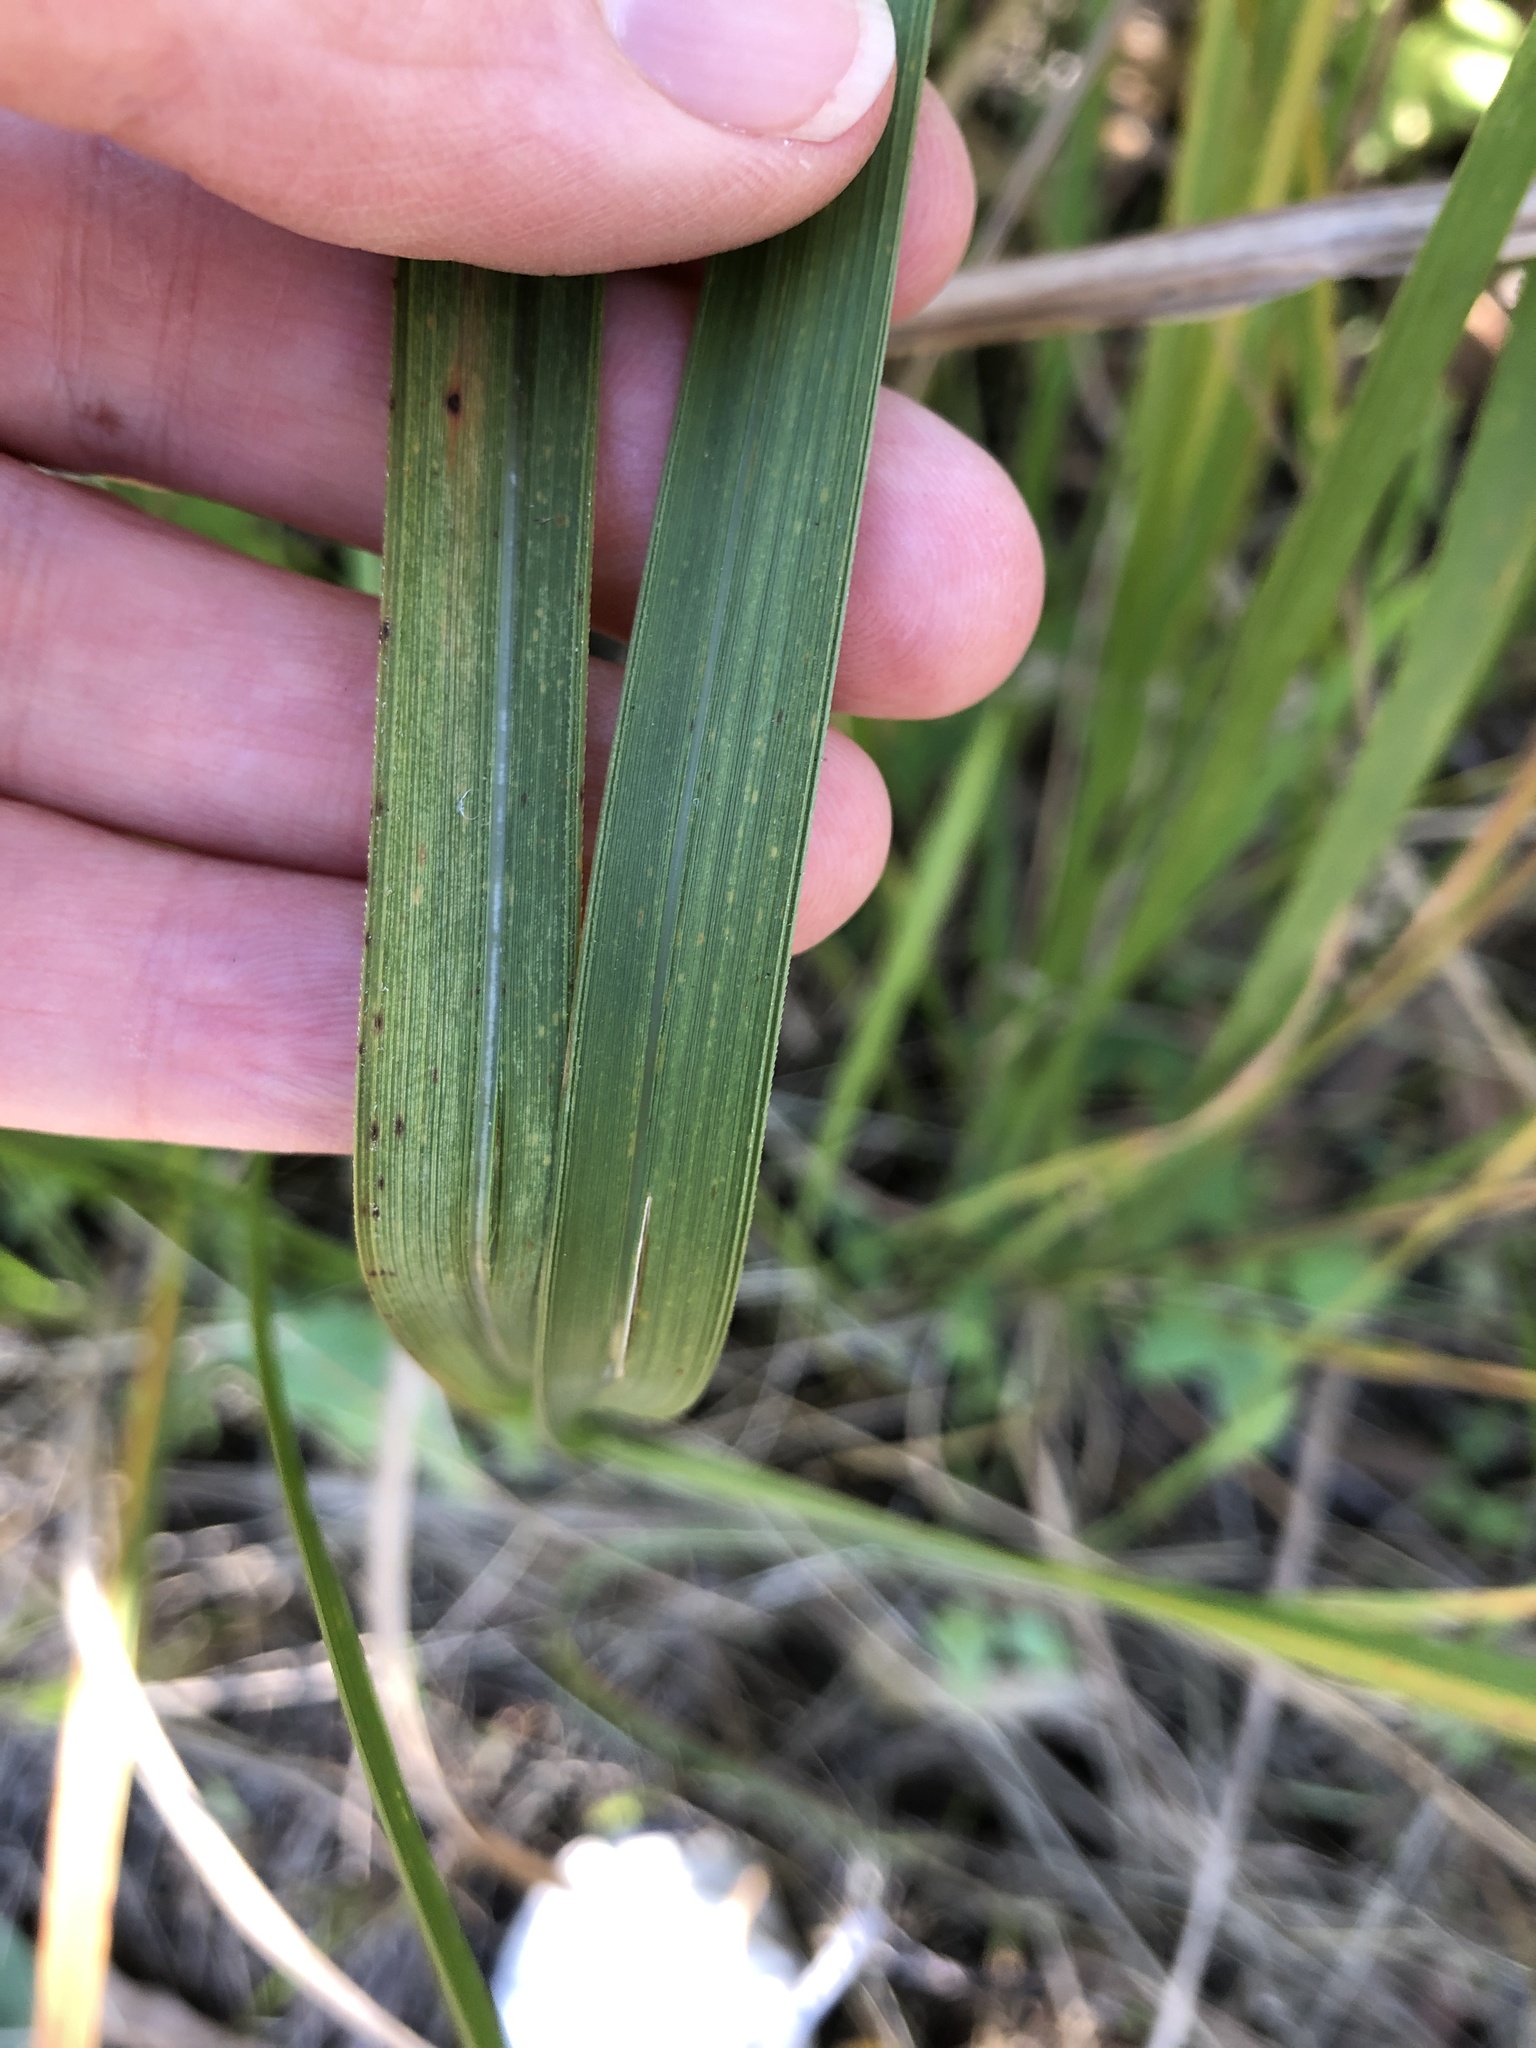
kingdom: Plantae
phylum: Tracheophyta
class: Liliopsida
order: Poales
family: Poaceae
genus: Imperata
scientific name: Imperata cylindrica
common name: Cogongrass
